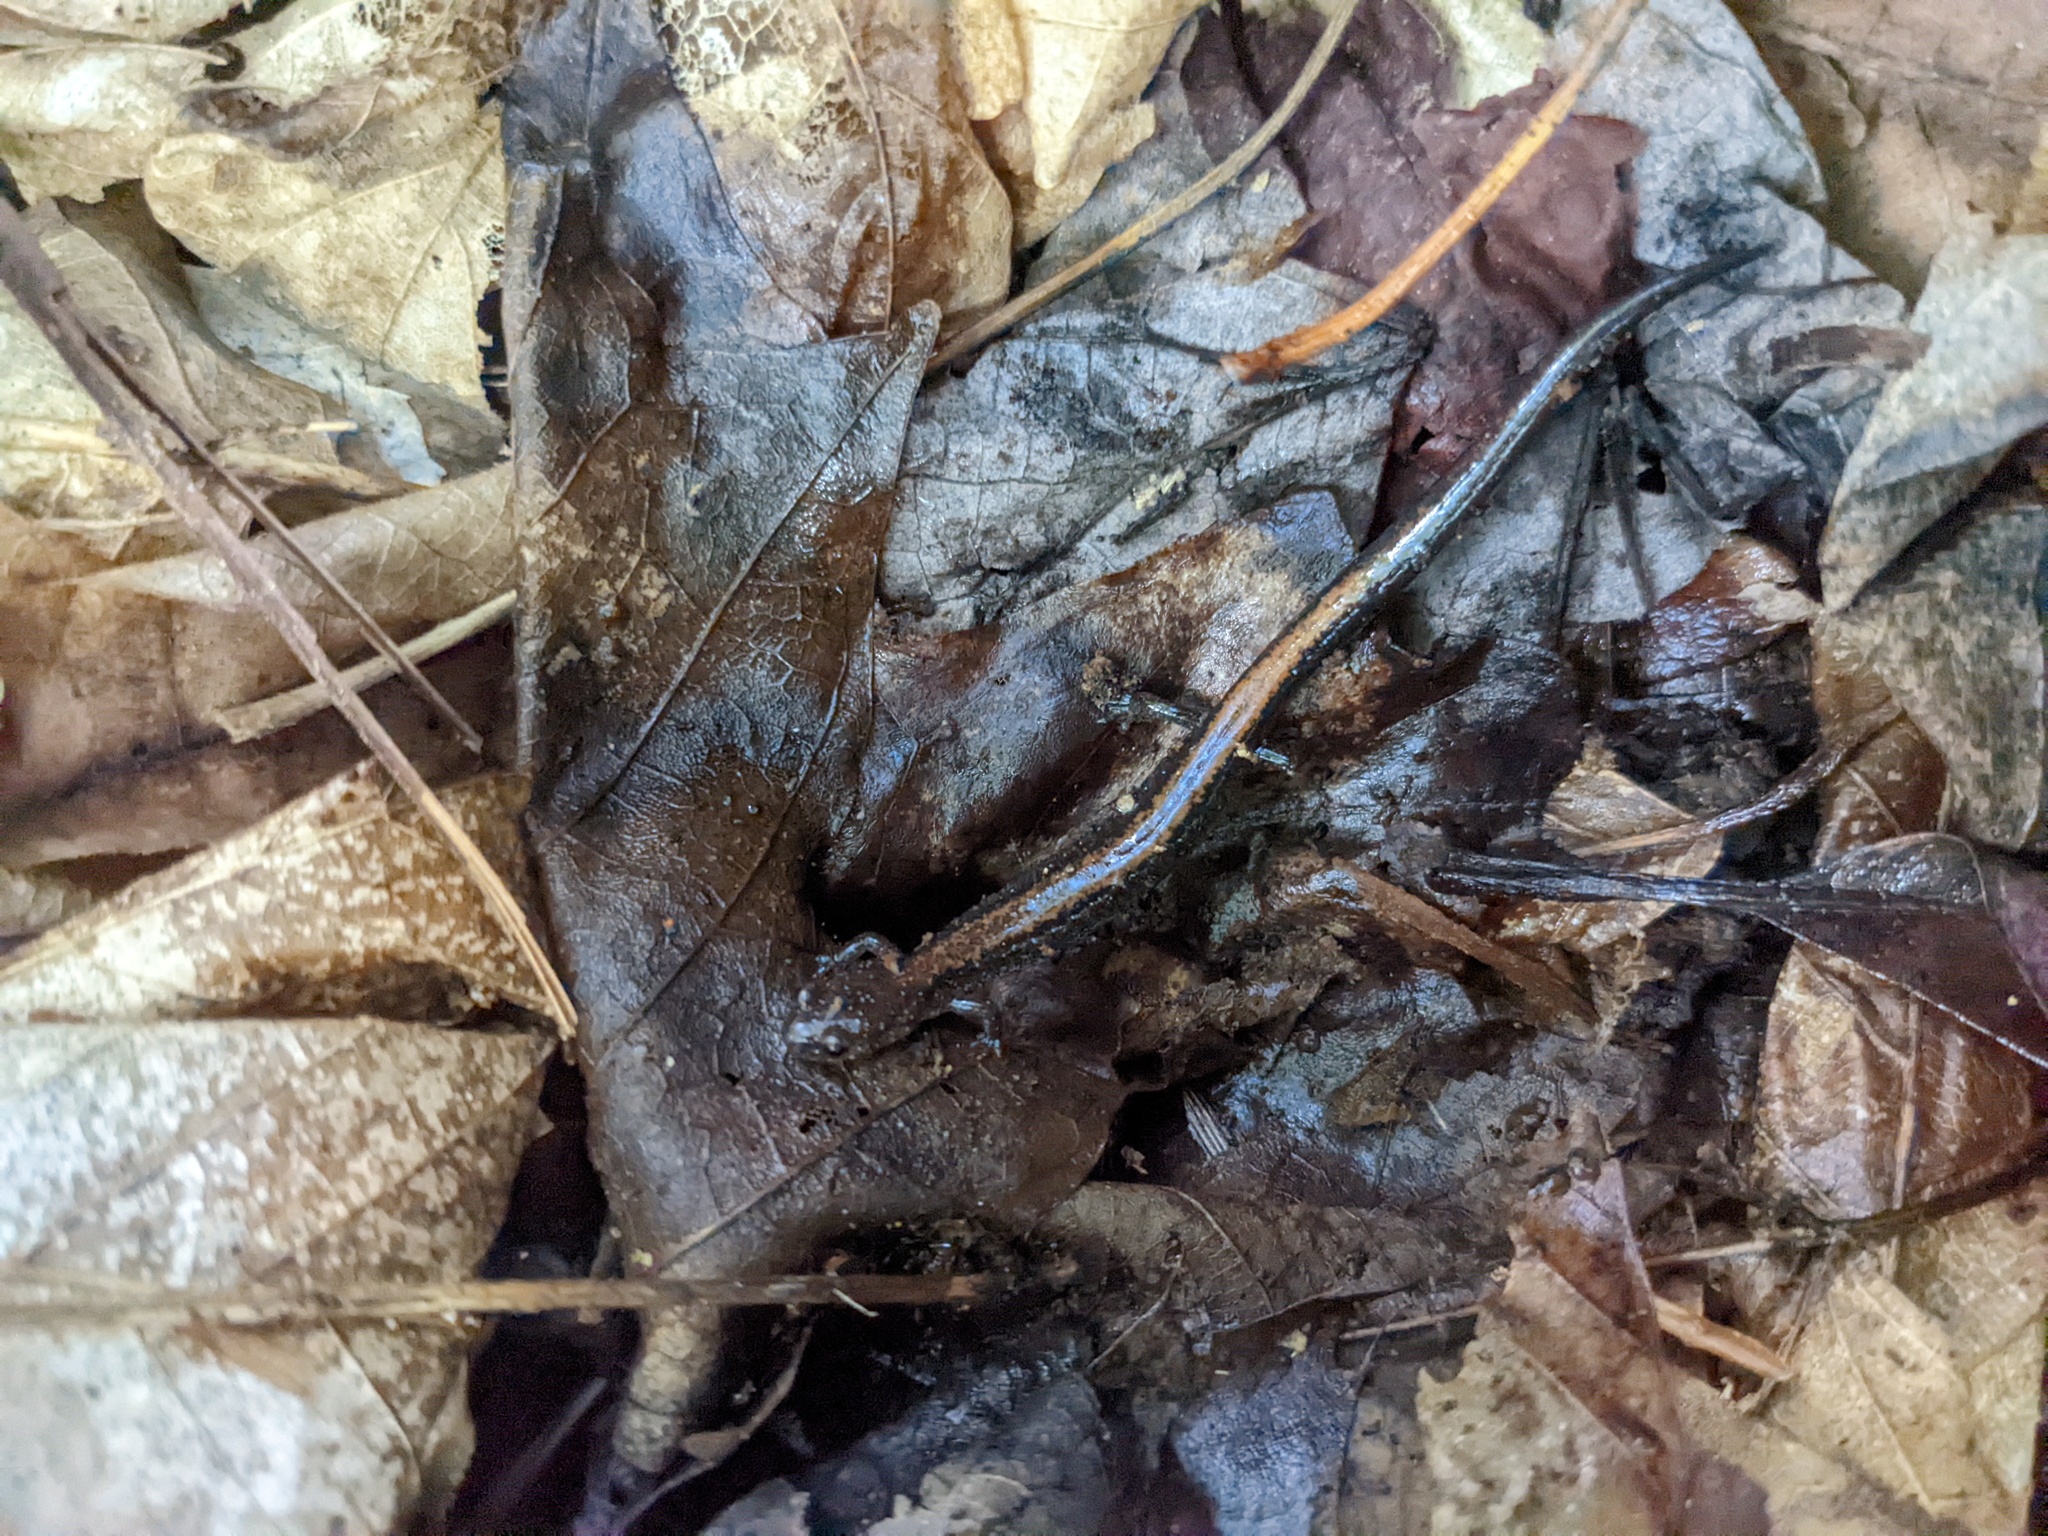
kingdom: Animalia
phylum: Chordata
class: Amphibia
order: Caudata
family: Plethodontidae
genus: Plethodon
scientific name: Plethodon cinereus
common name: Redback salamander
